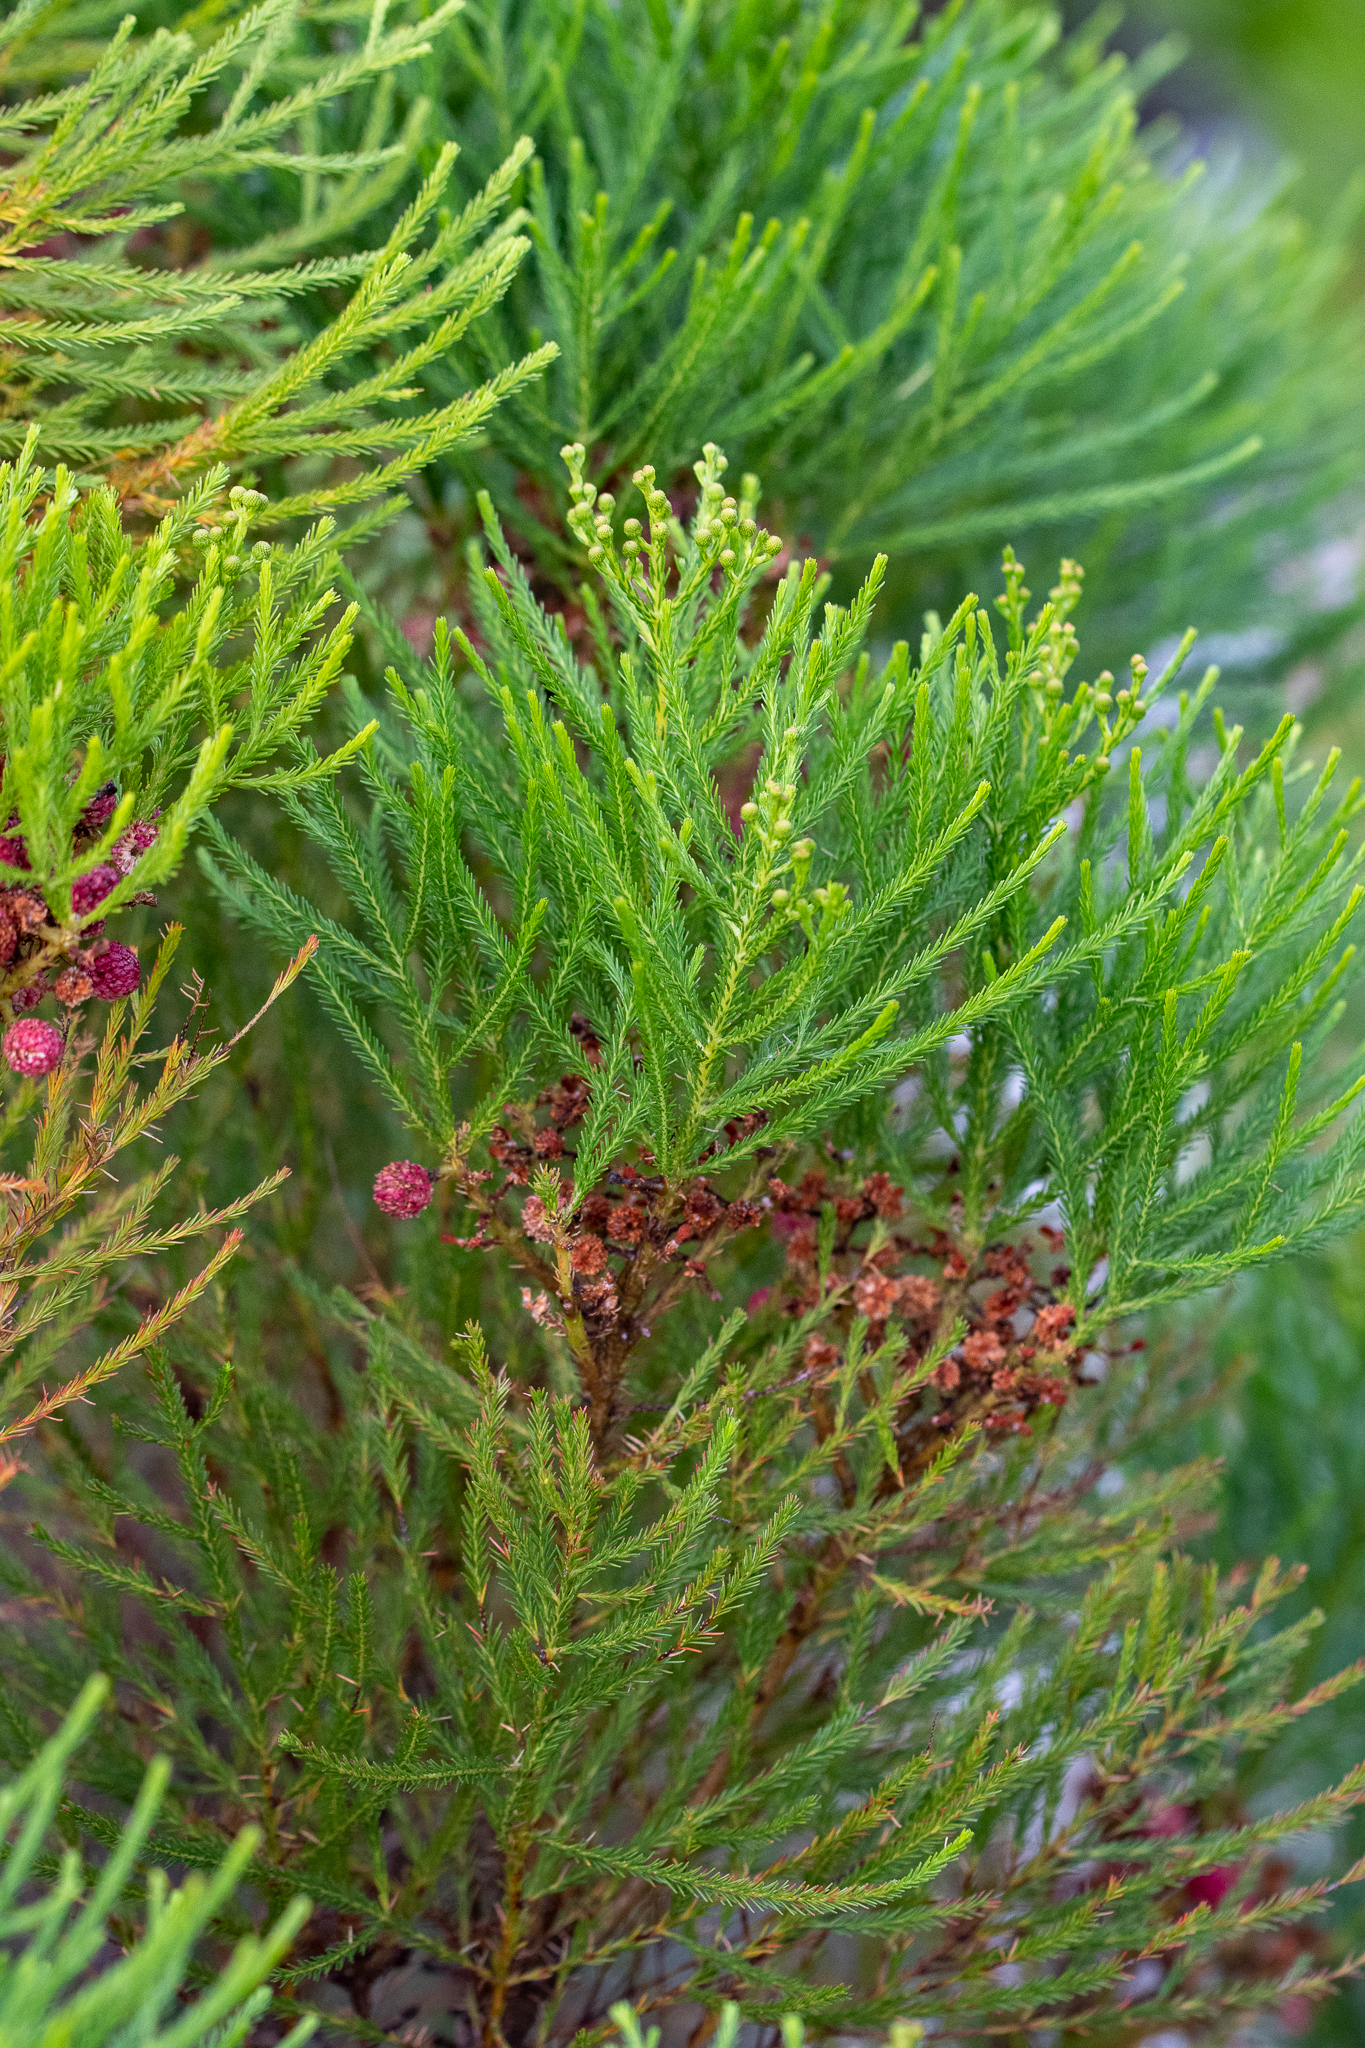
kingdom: Plantae
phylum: Tracheophyta
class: Magnoliopsida
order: Bruniales
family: Bruniaceae
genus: Berzelia
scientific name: Berzelia lanuginosa
